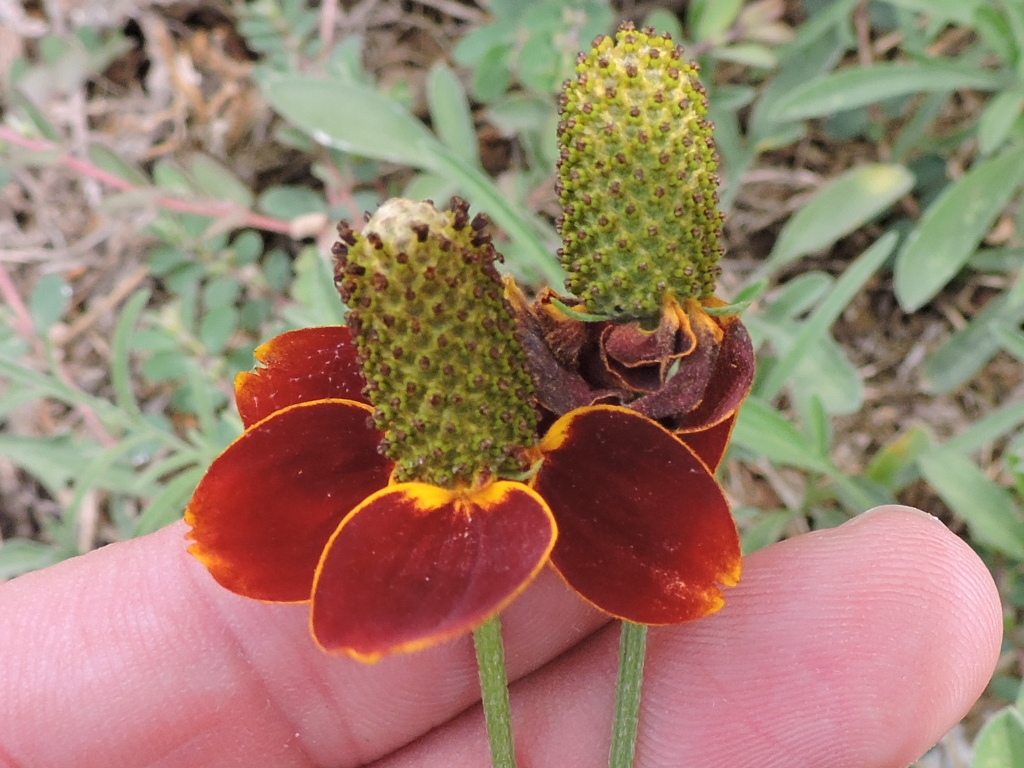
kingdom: Plantae
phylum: Tracheophyta
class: Magnoliopsida
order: Asterales
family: Asteraceae
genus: Ratibida
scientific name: Ratibida columnifera
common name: Prairie coneflower
